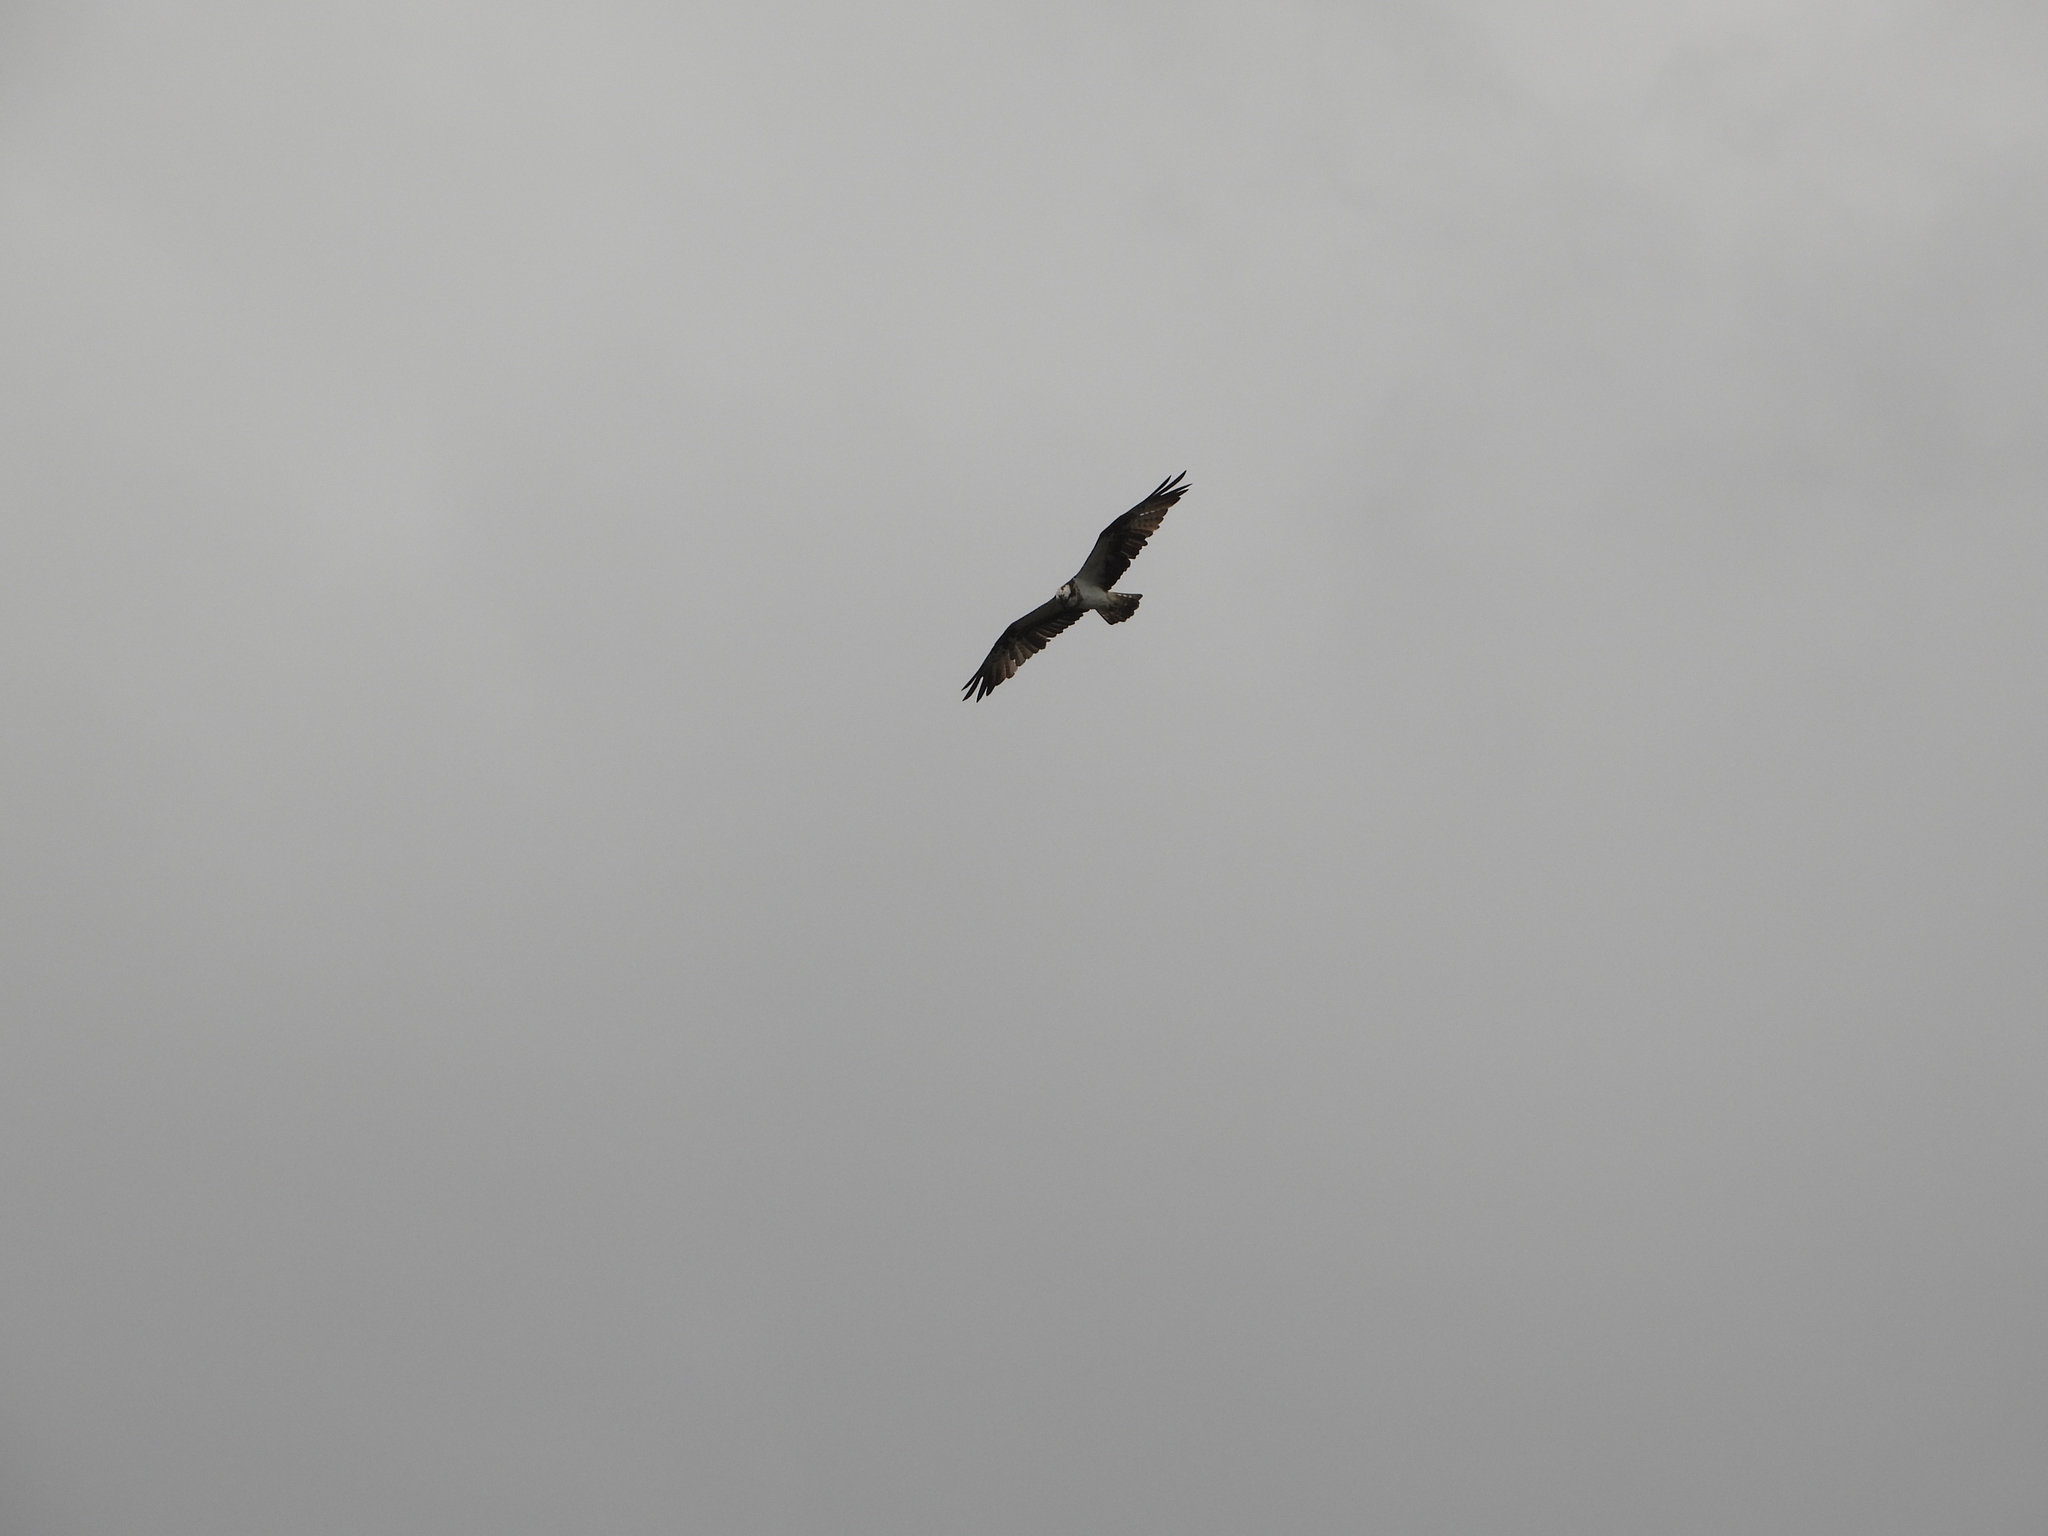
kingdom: Animalia
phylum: Chordata
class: Aves
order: Accipitriformes
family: Pandionidae
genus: Pandion
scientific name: Pandion haliaetus
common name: Osprey
